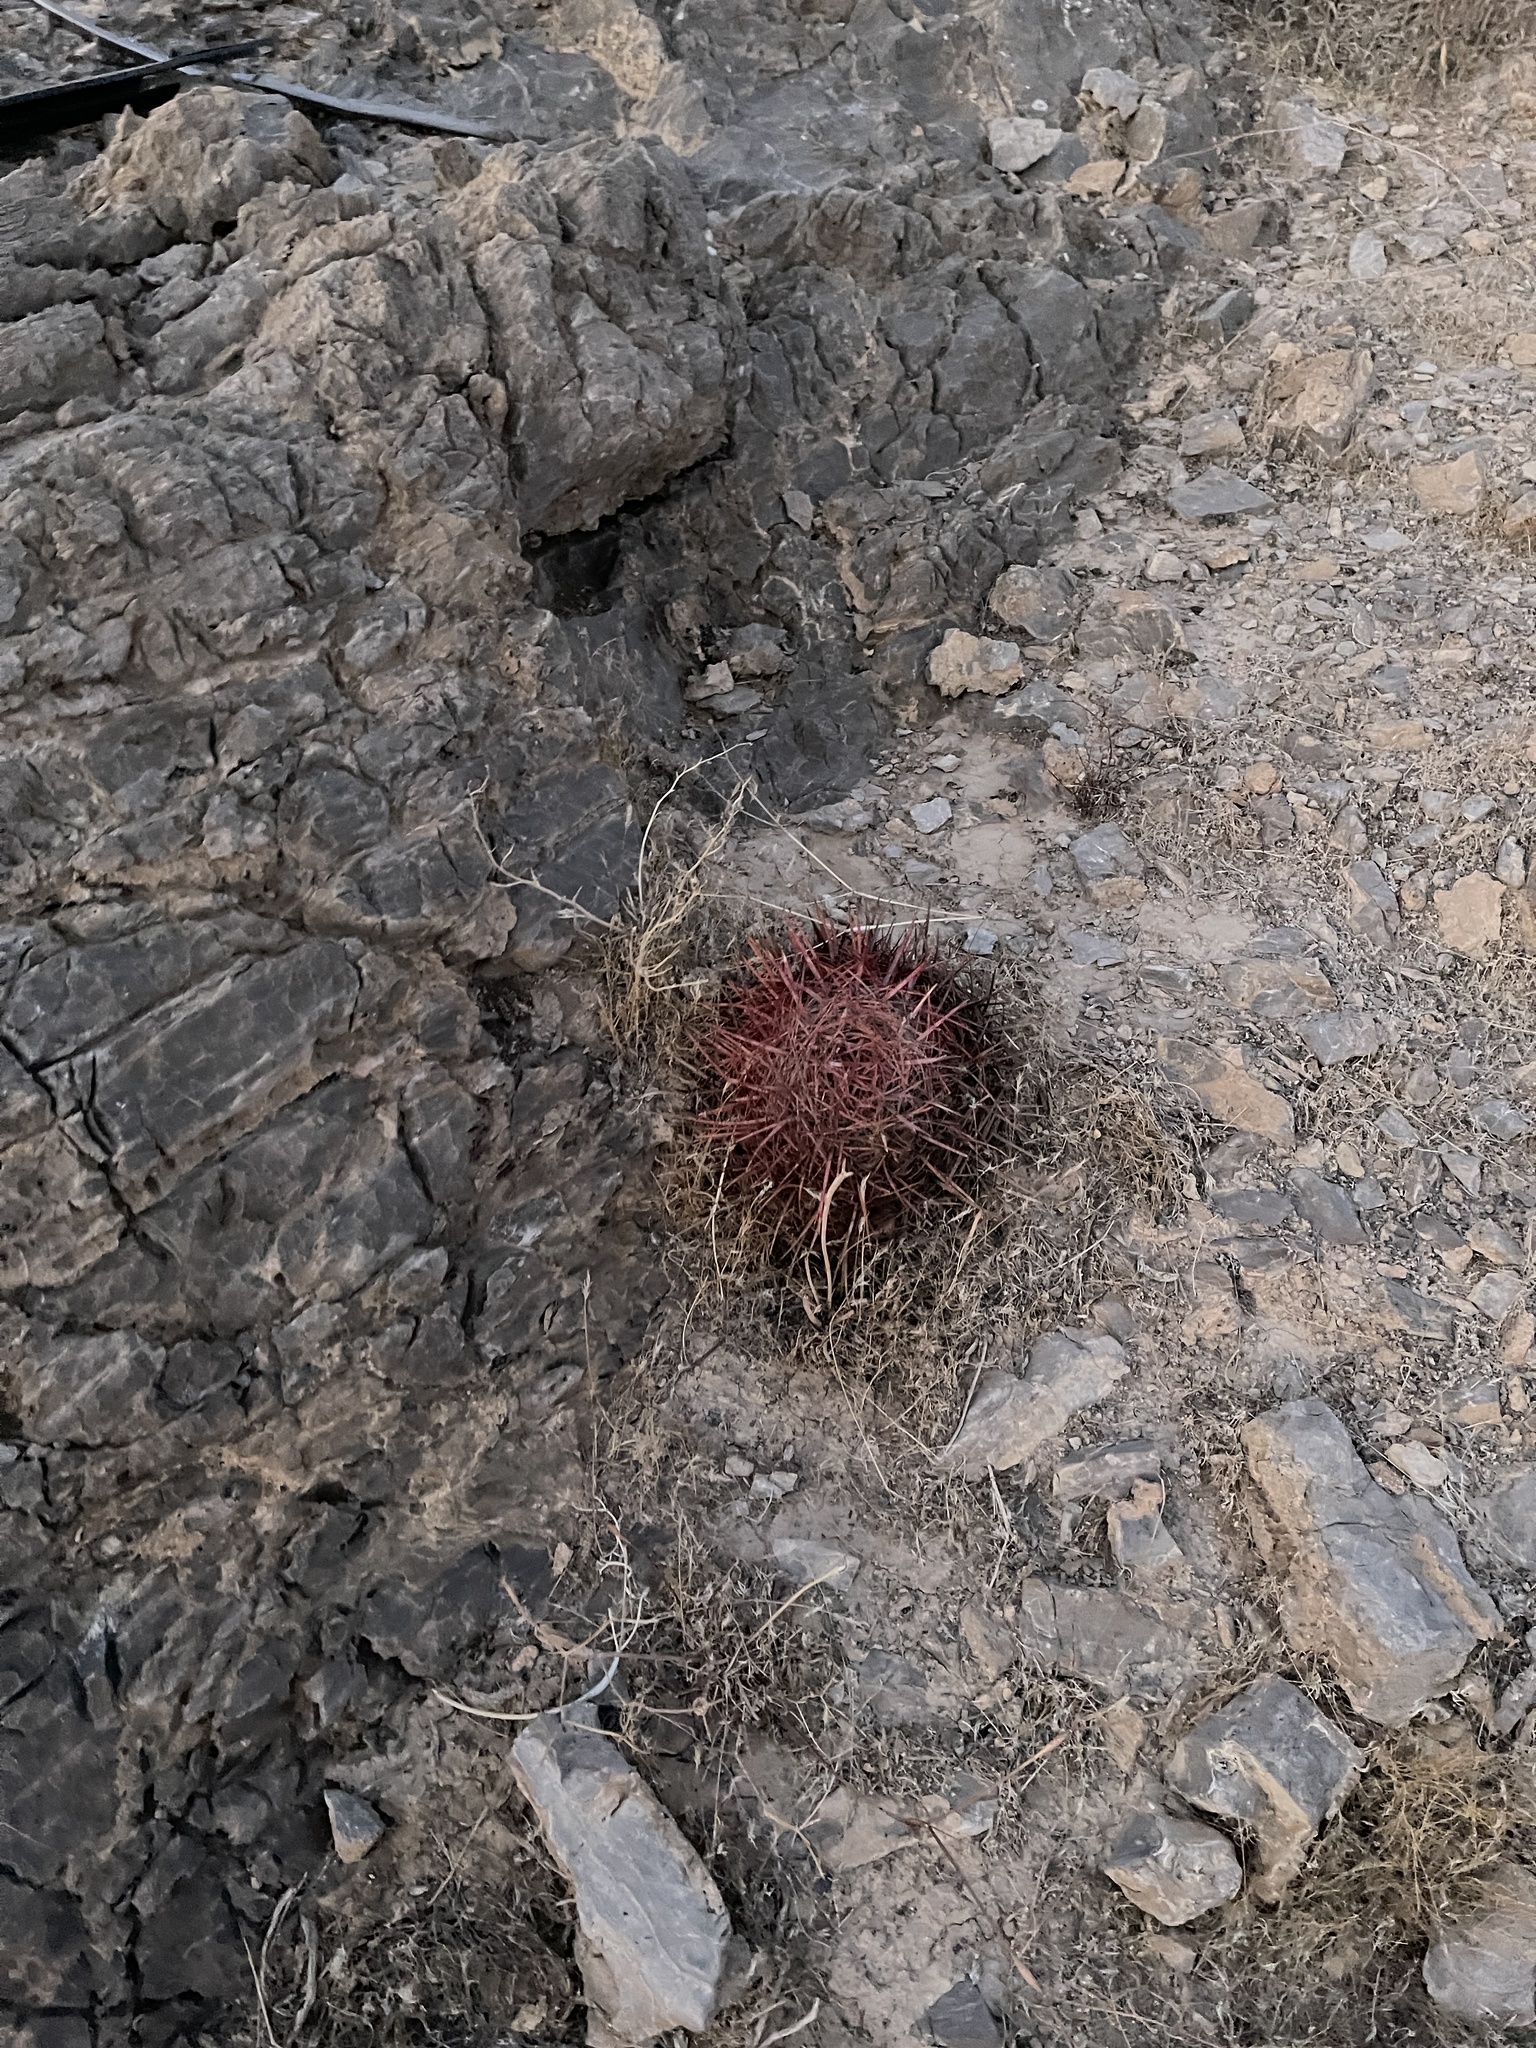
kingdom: Plantae
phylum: Tracheophyta
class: Magnoliopsida
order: Caryophyllales
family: Cactaceae
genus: Ferocactus
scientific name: Ferocactus cylindraceus
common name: California barrel cactus
